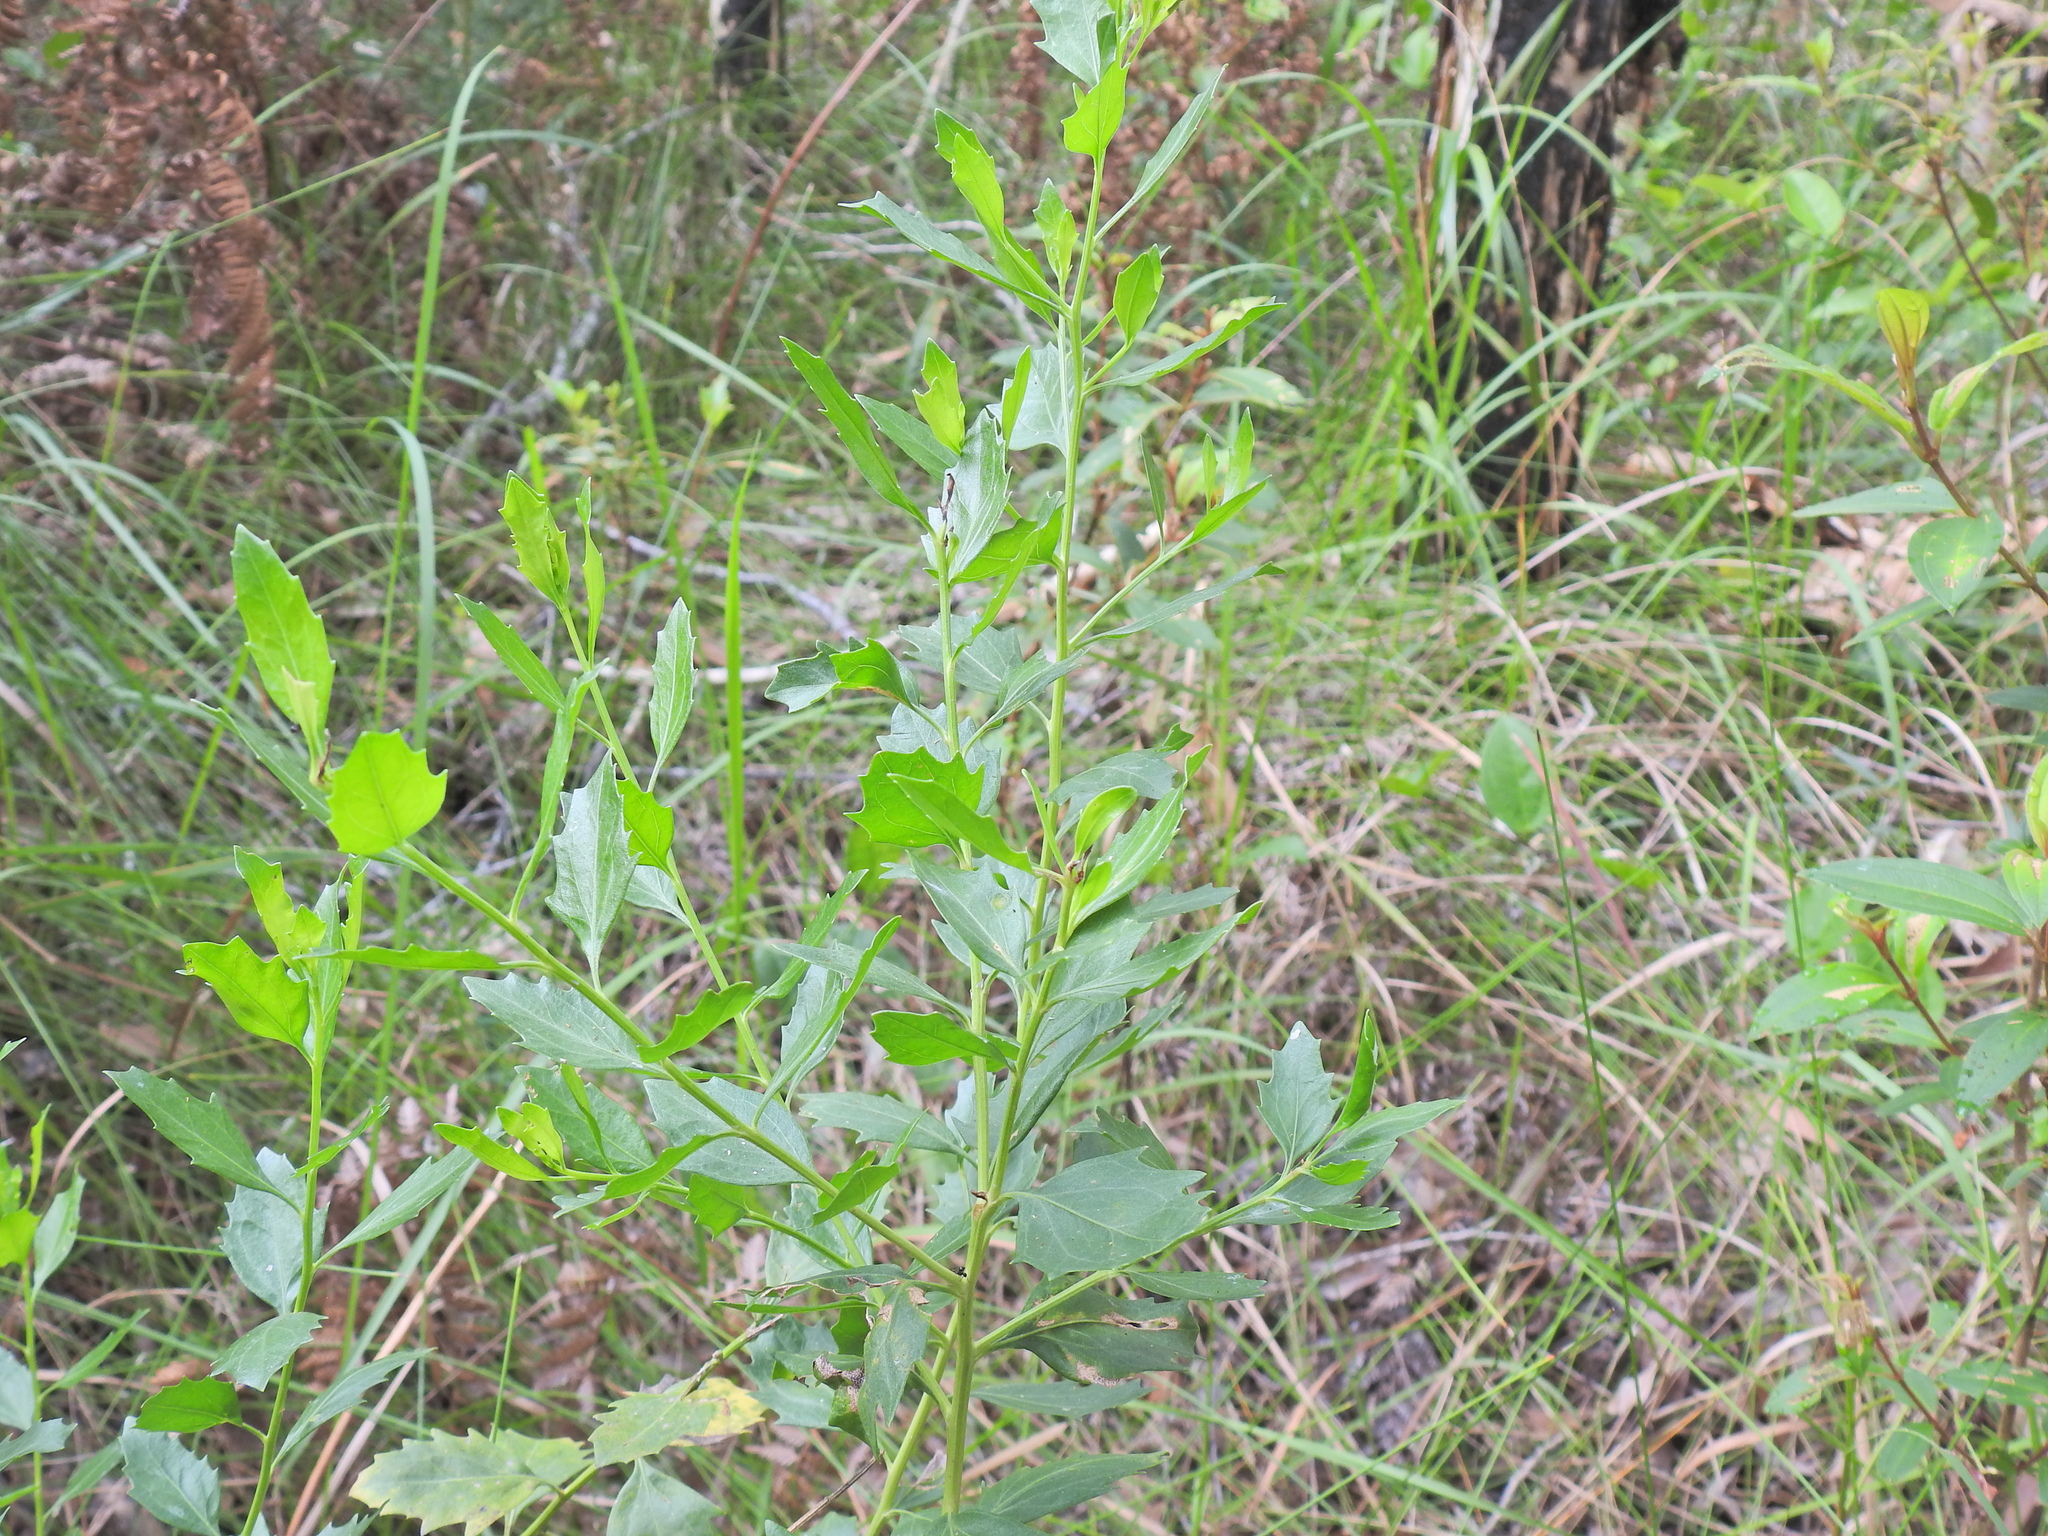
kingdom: Plantae
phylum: Tracheophyta
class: Magnoliopsida
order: Asterales
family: Asteraceae
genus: Baccharis
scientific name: Baccharis halimifolia
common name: Eastern baccharis
